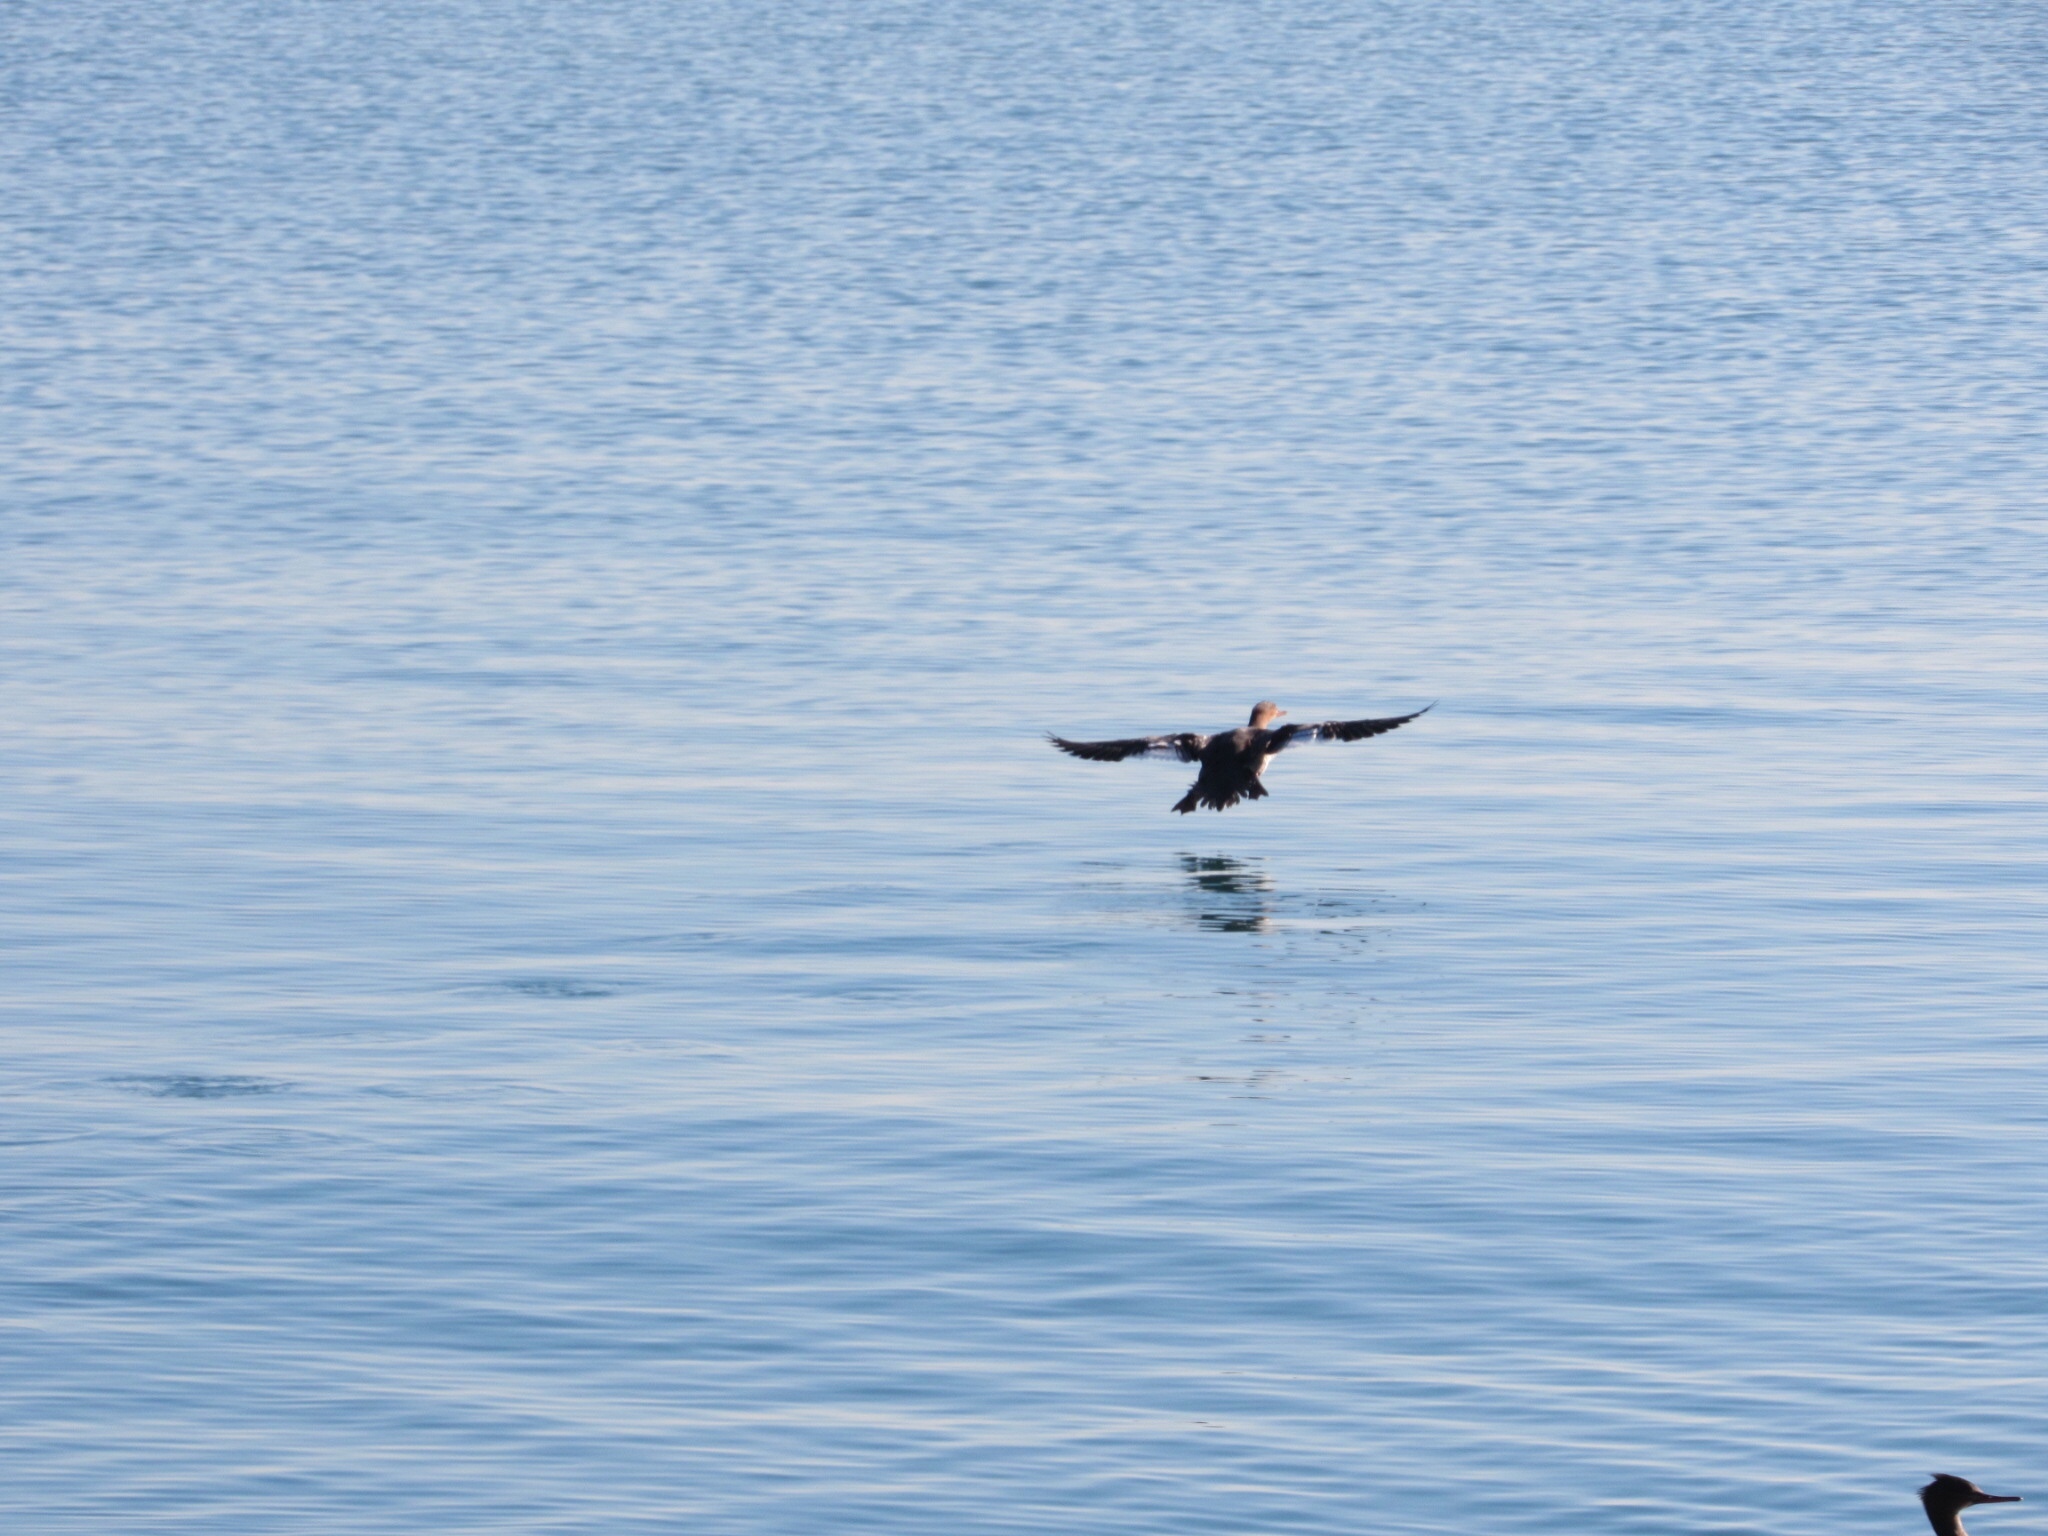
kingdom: Animalia
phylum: Chordata
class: Aves
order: Anseriformes
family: Anatidae
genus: Mergus
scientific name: Mergus serrator
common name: Red-breasted merganser
